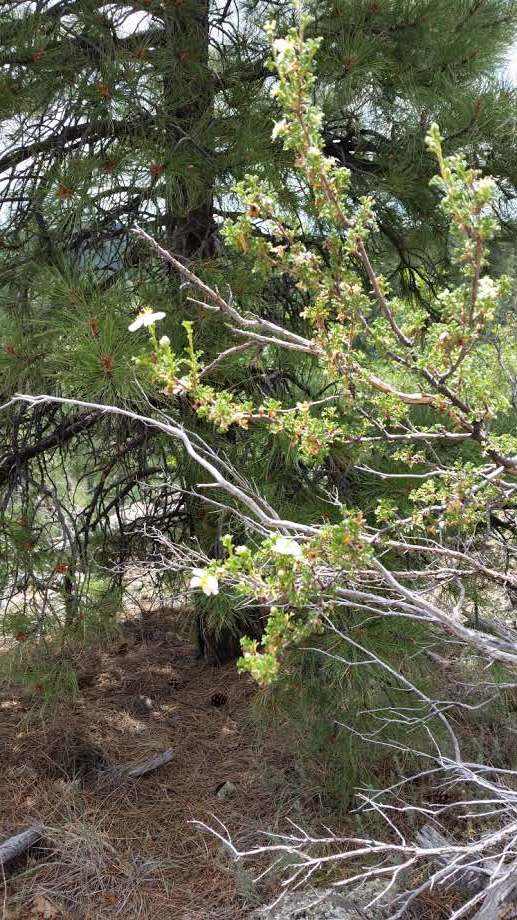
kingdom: Plantae
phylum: Tracheophyta
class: Magnoliopsida
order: Rosales
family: Rosaceae
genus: Purshia
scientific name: Purshia stansburiana
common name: Stansbury's cliffrose
